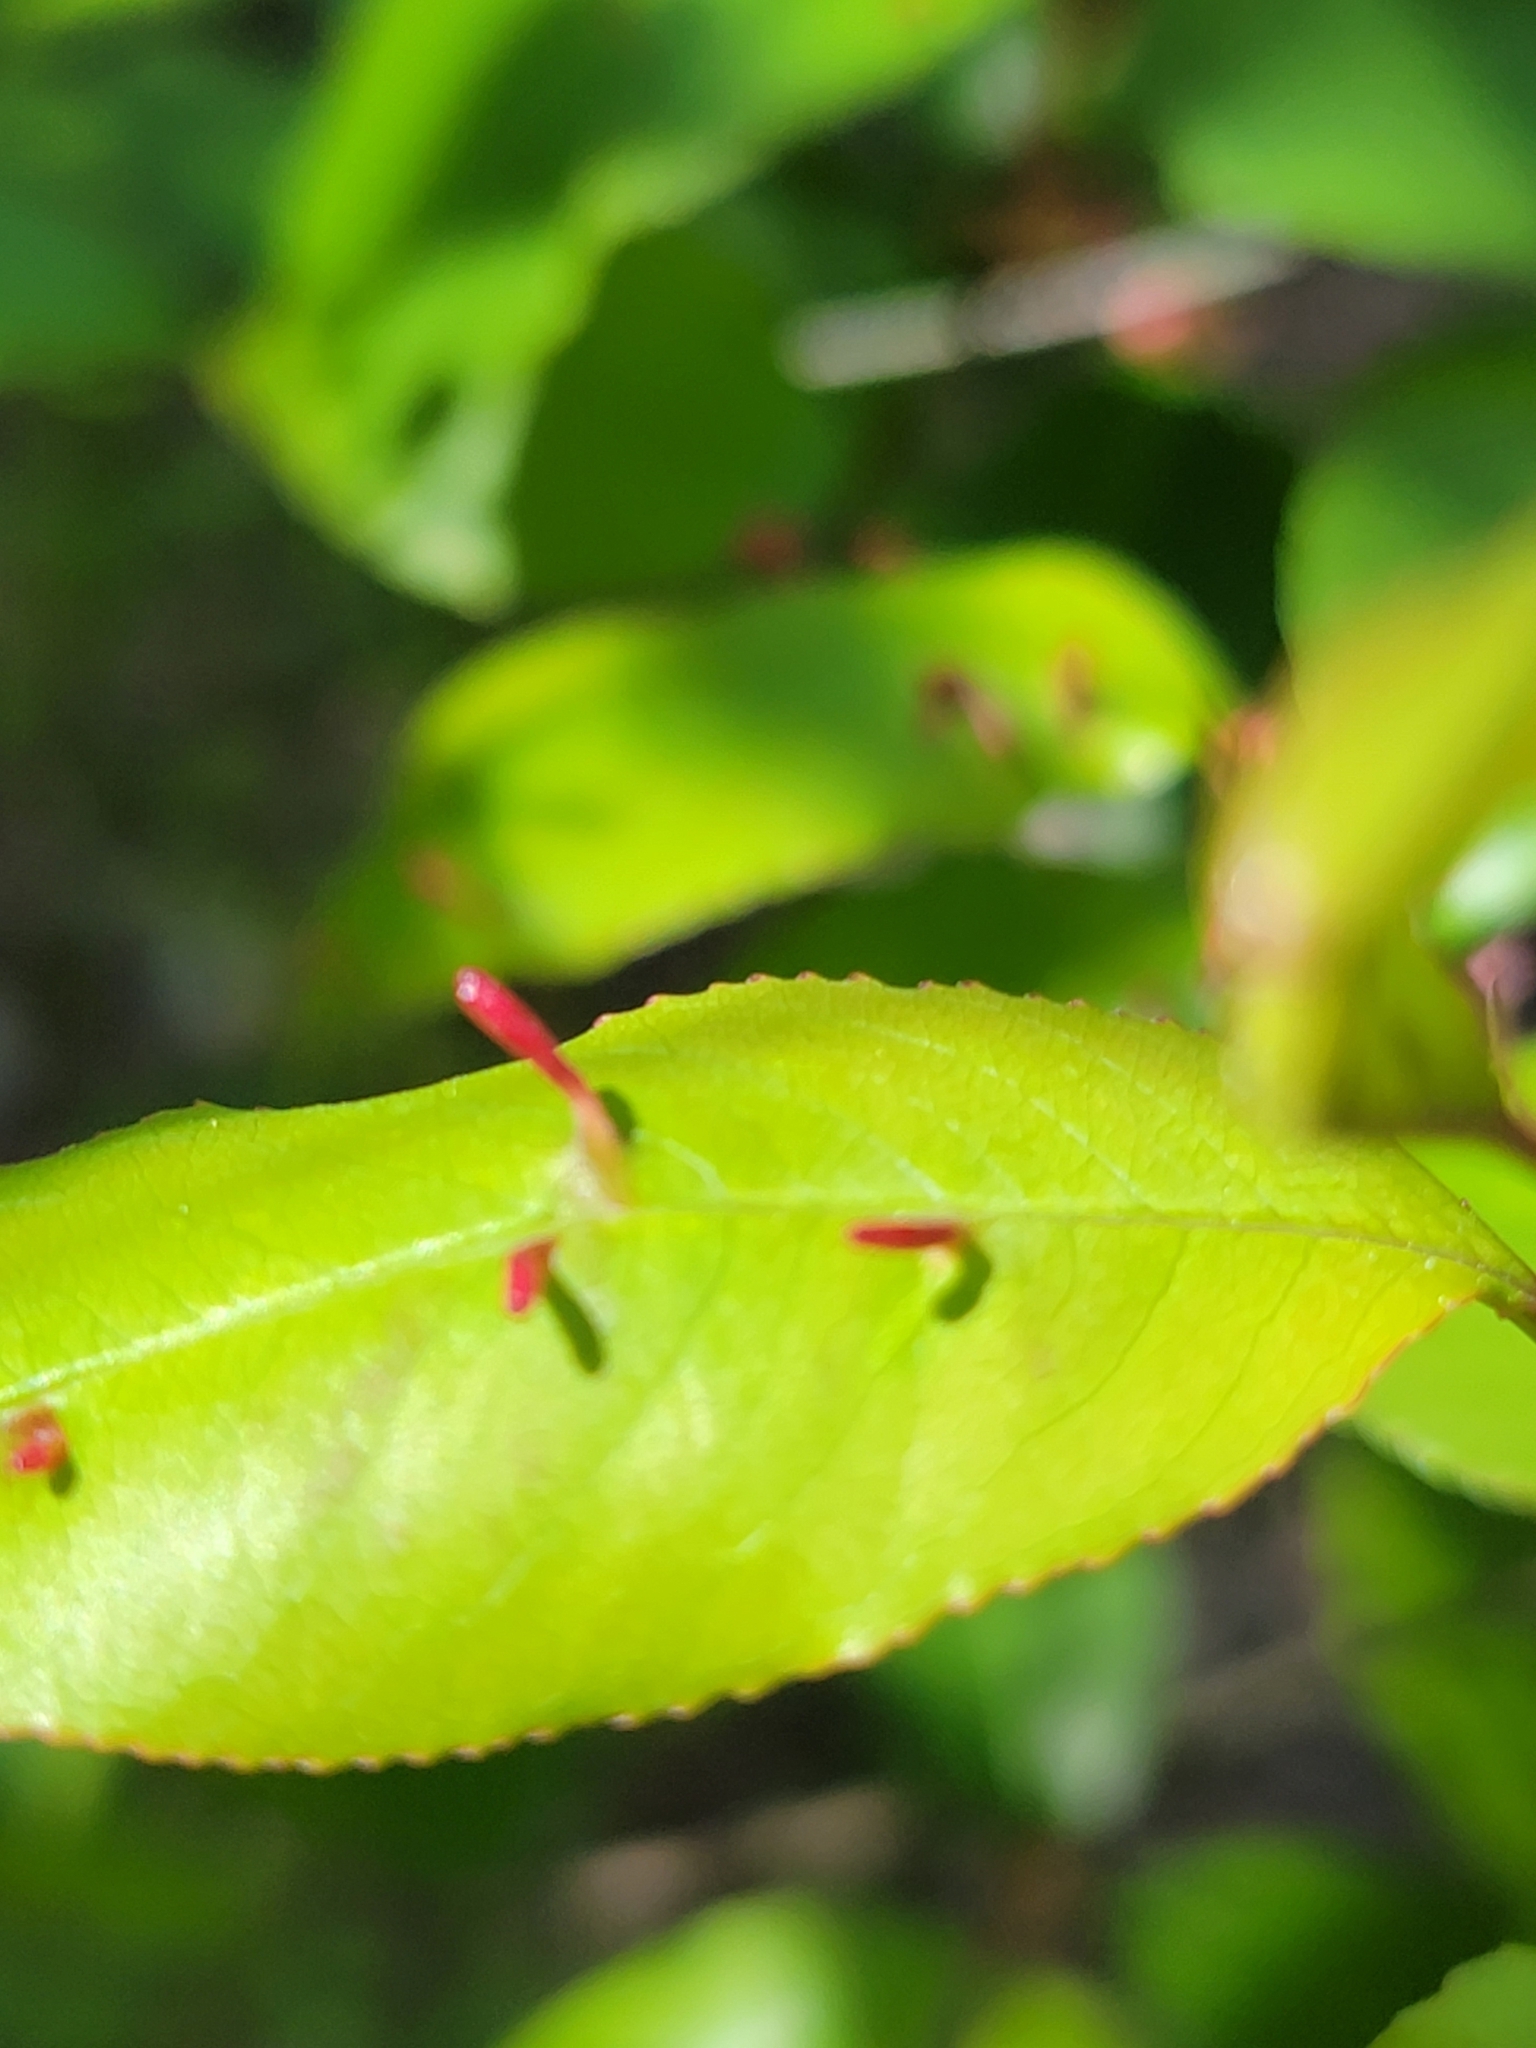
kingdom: Animalia
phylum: Arthropoda
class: Arachnida
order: Trombidiformes
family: Eriophyidae
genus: Eriophyes
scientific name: Eriophyes
